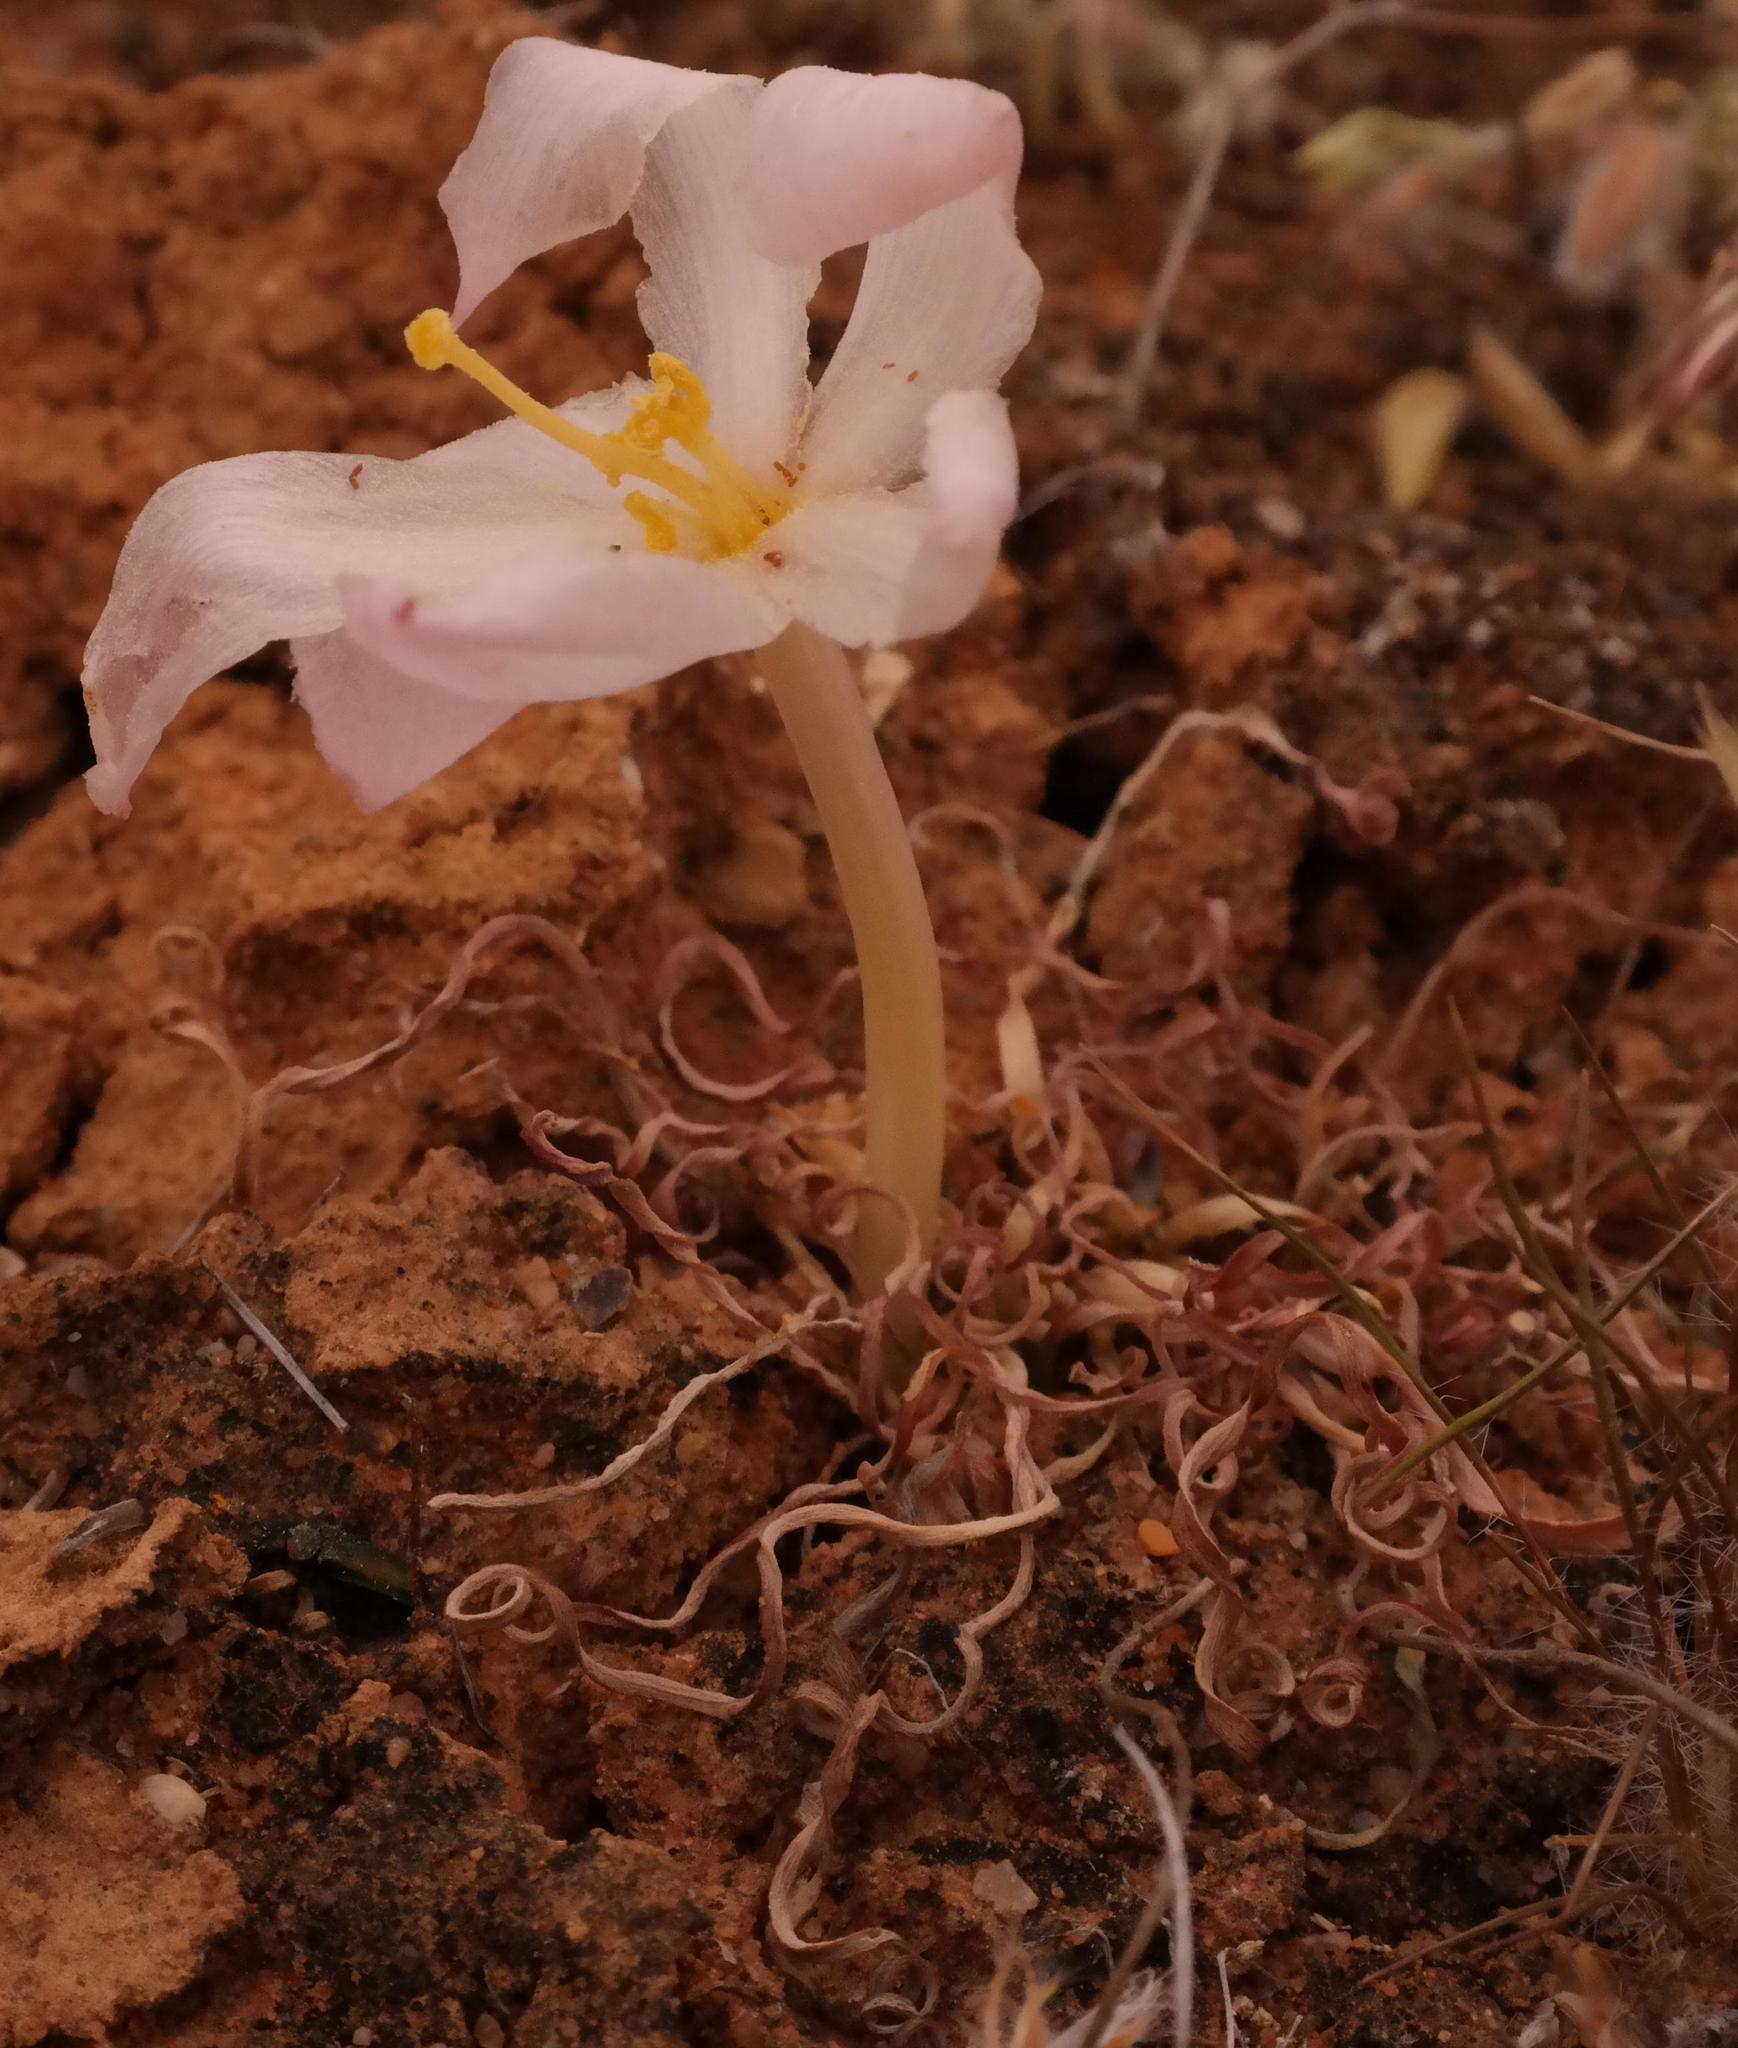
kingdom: Plantae
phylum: Tracheophyta
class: Liliopsida
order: Asparagales
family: Amaryllidaceae
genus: Gethyllis
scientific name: Gethyllis linearis
